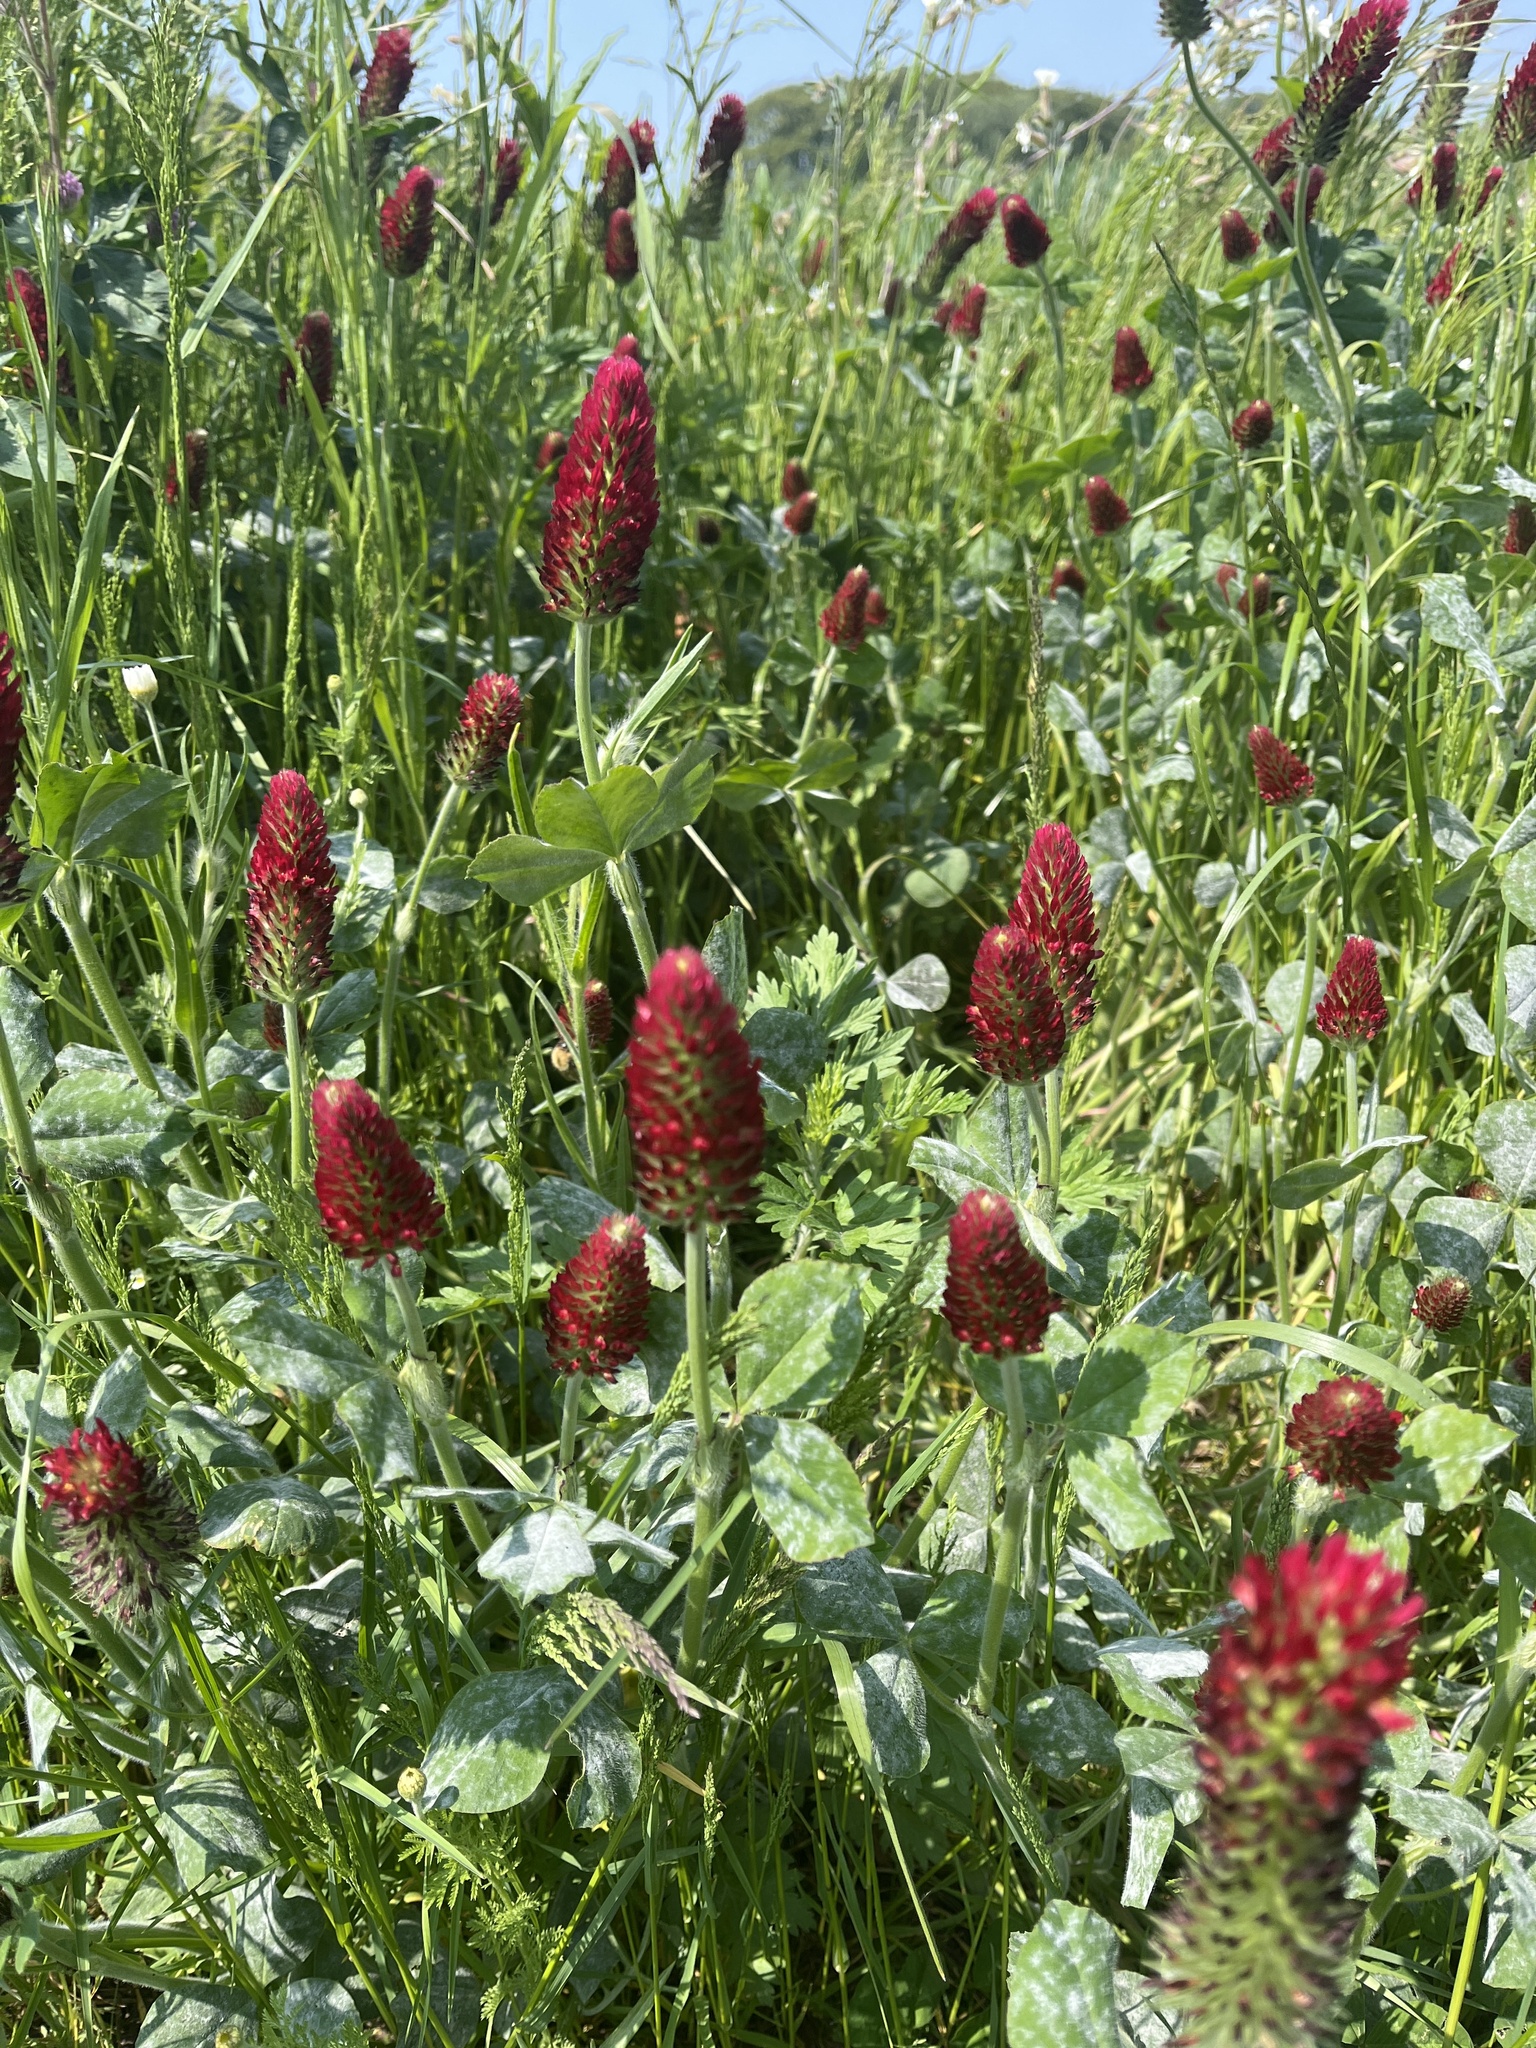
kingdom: Plantae
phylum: Tracheophyta
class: Magnoliopsida
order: Fabales
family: Fabaceae
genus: Trifolium
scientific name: Trifolium incarnatum
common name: Crimson clover
